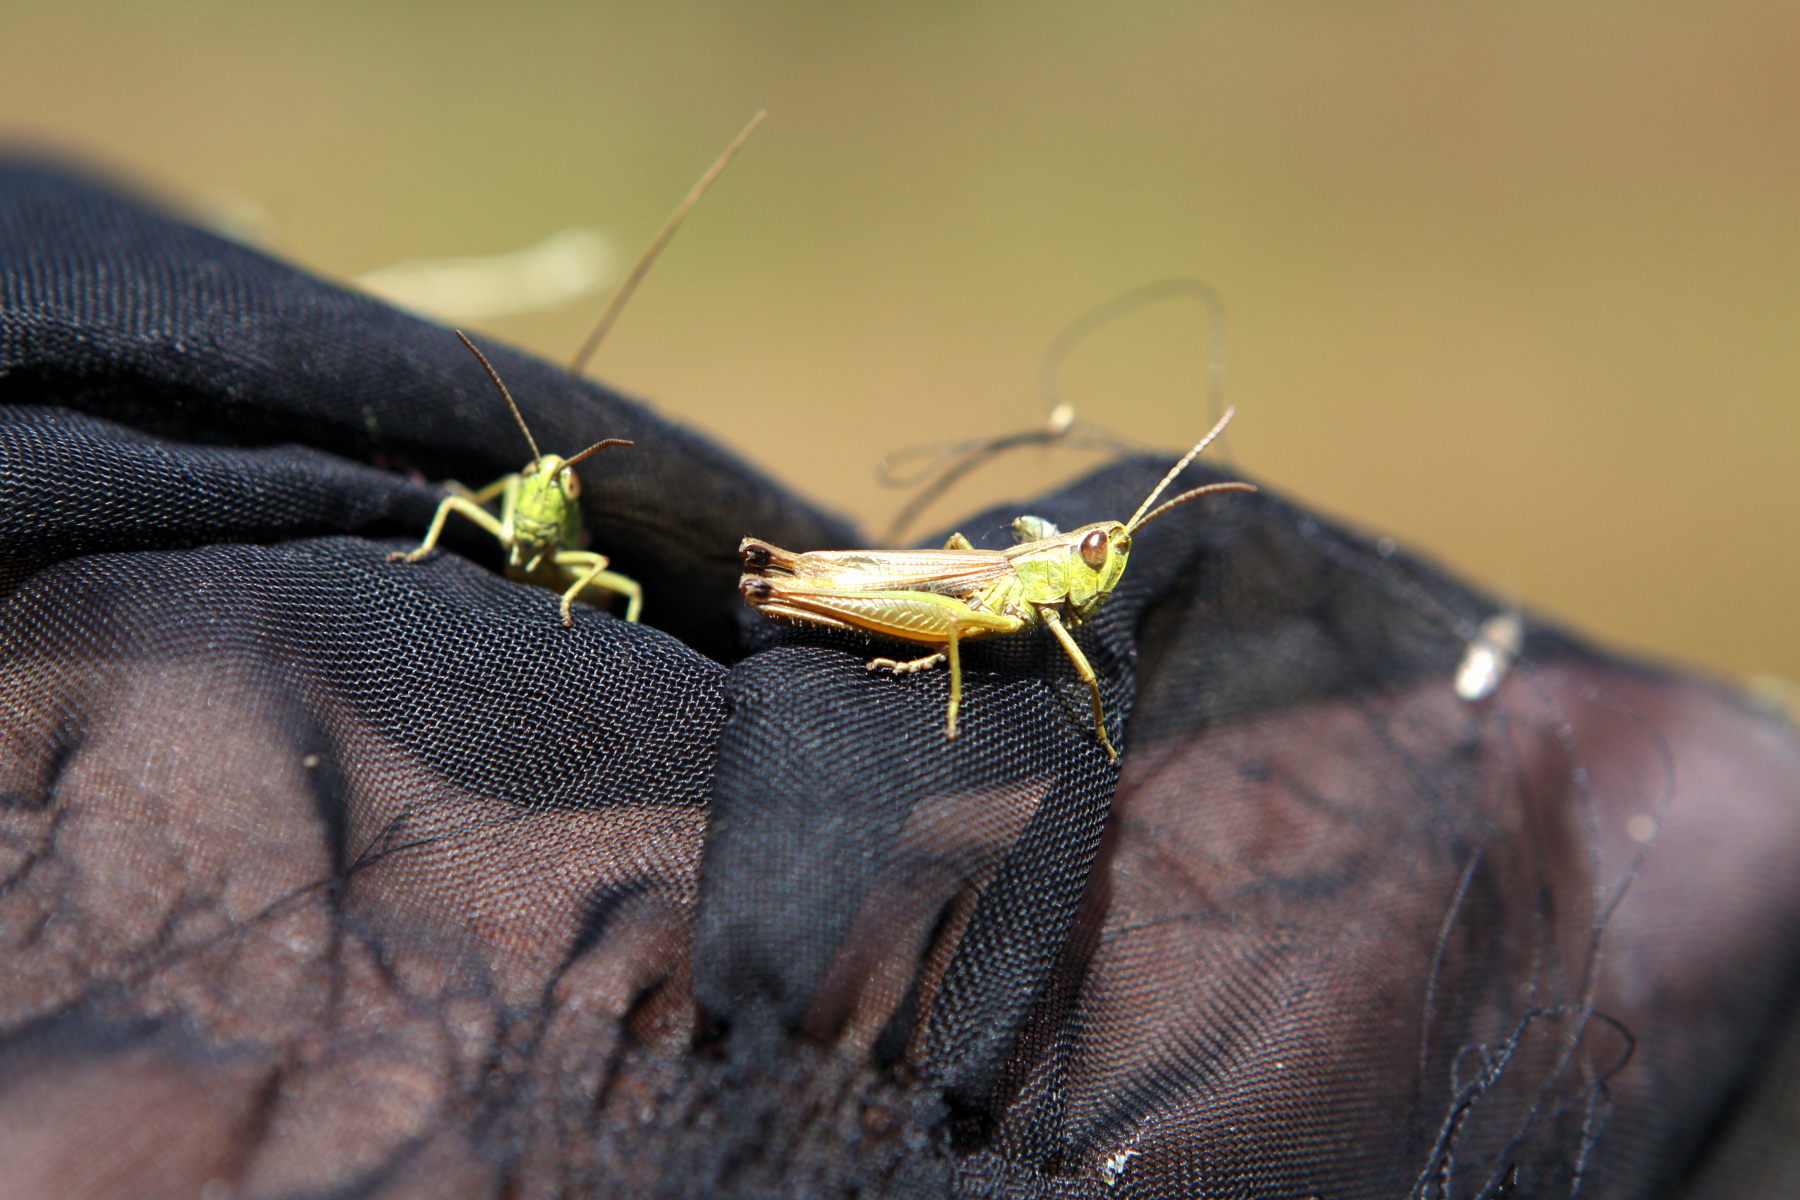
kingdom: Animalia
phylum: Arthropoda
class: Insecta
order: Orthoptera
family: Acrididae
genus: Pseudochorthippus
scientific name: Pseudochorthippus parallelus
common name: Meadow grasshopper
